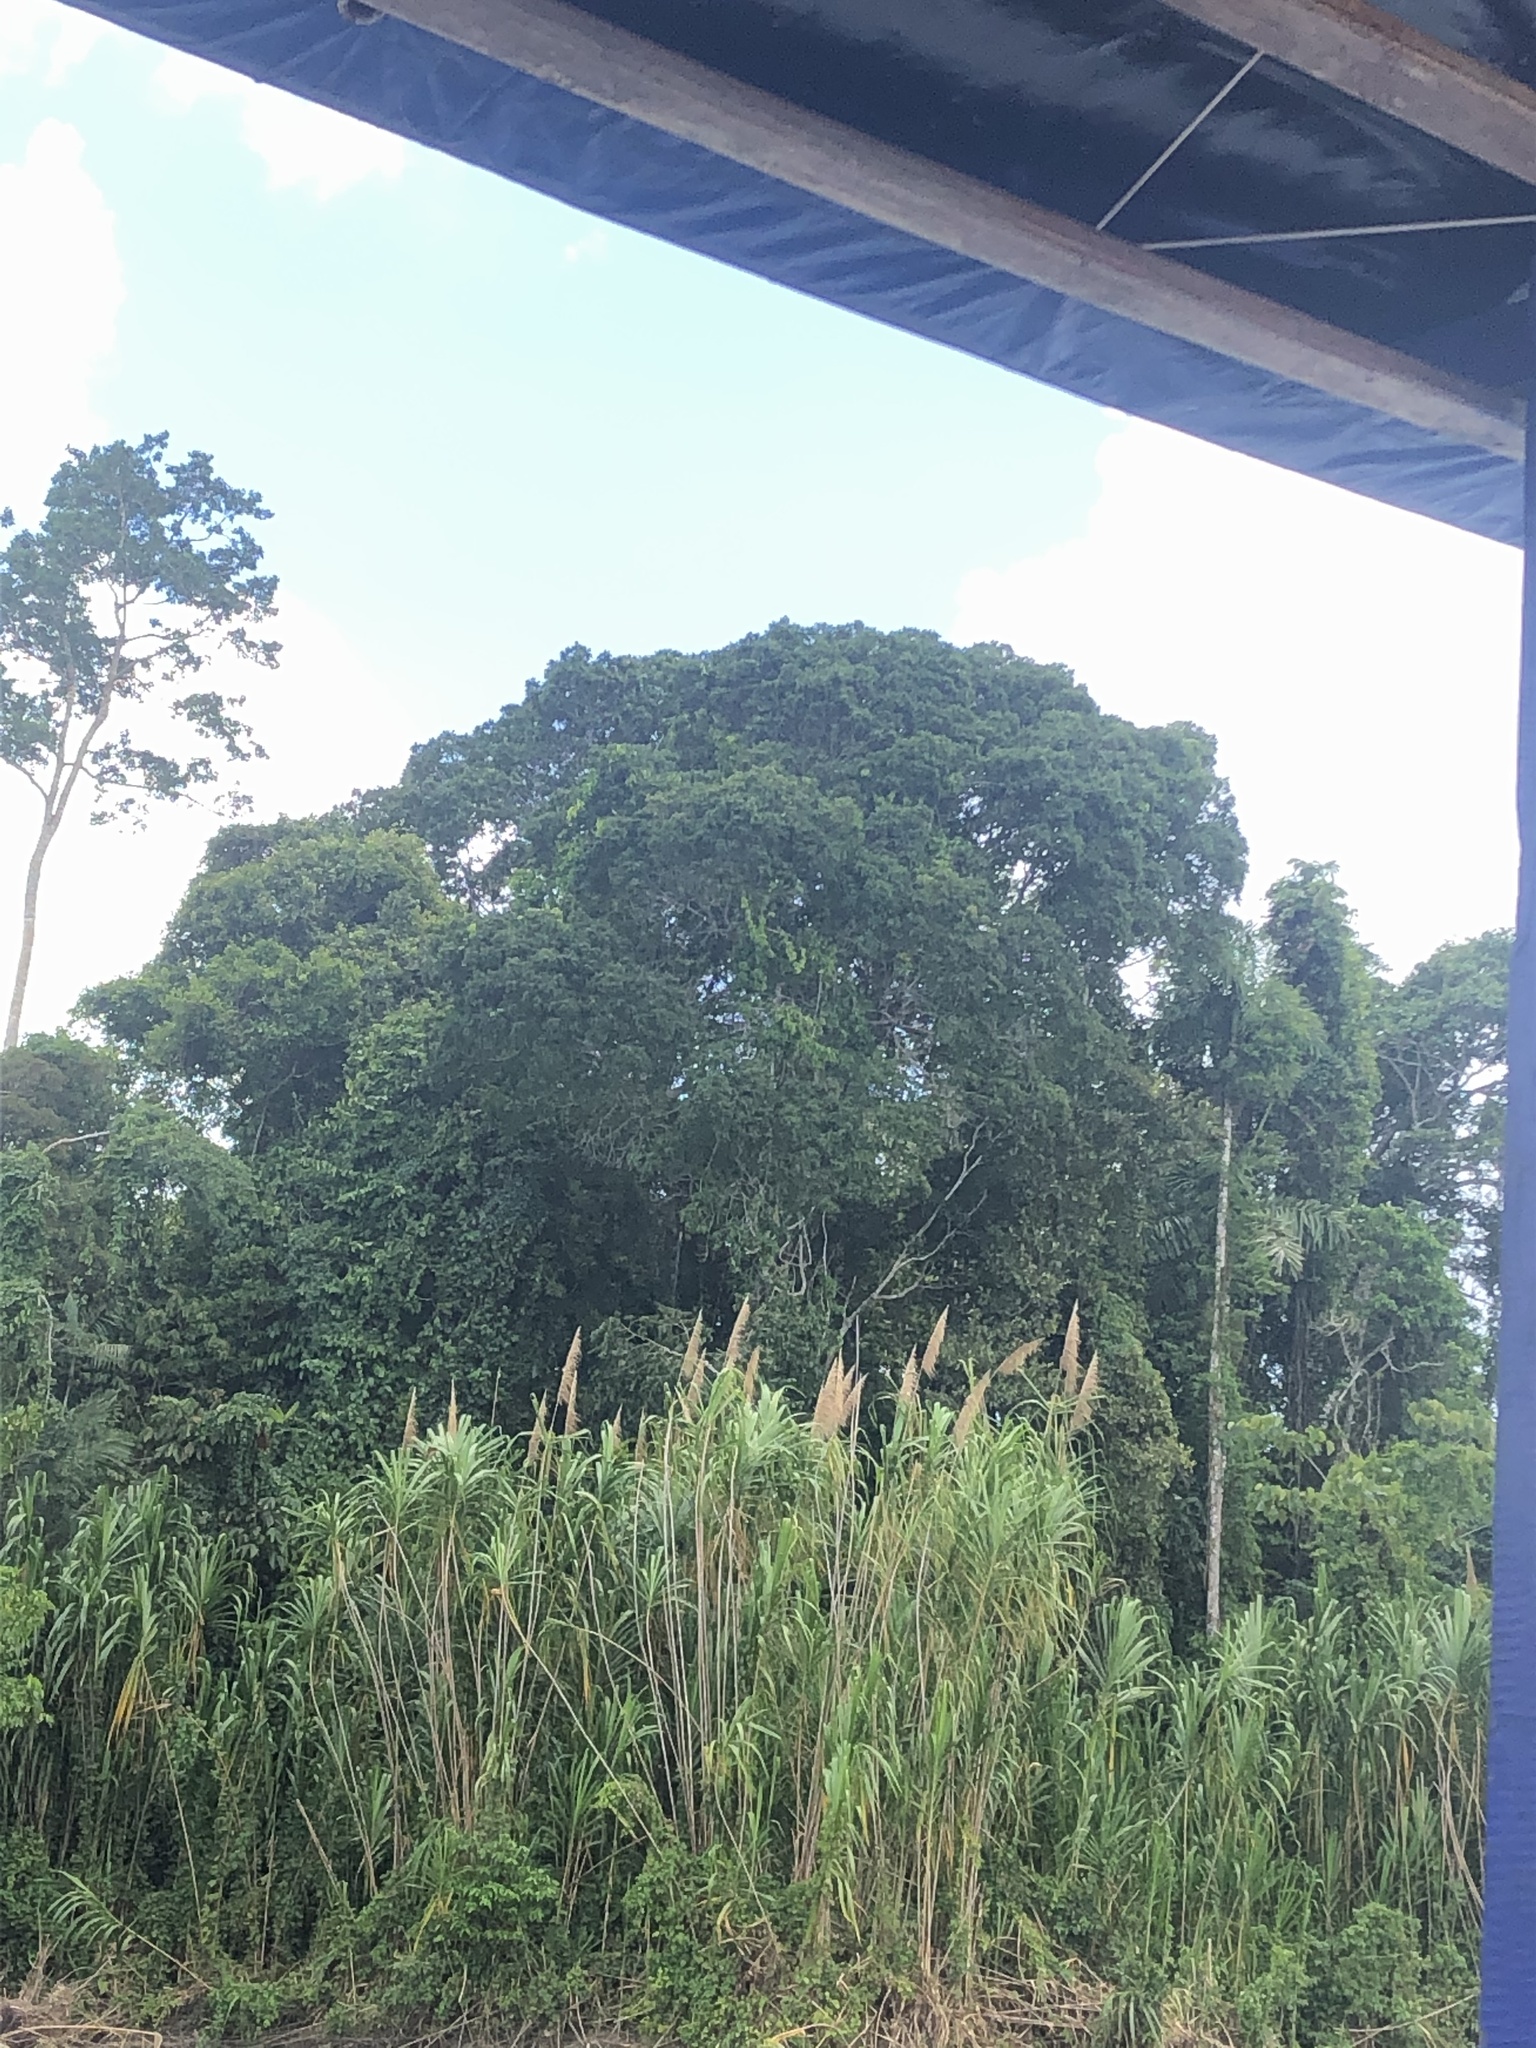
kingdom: Plantae
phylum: Tracheophyta
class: Liliopsida
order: Poales
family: Poaceae
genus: Gynerium
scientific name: Gynerium sagittatum
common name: Wild cane
